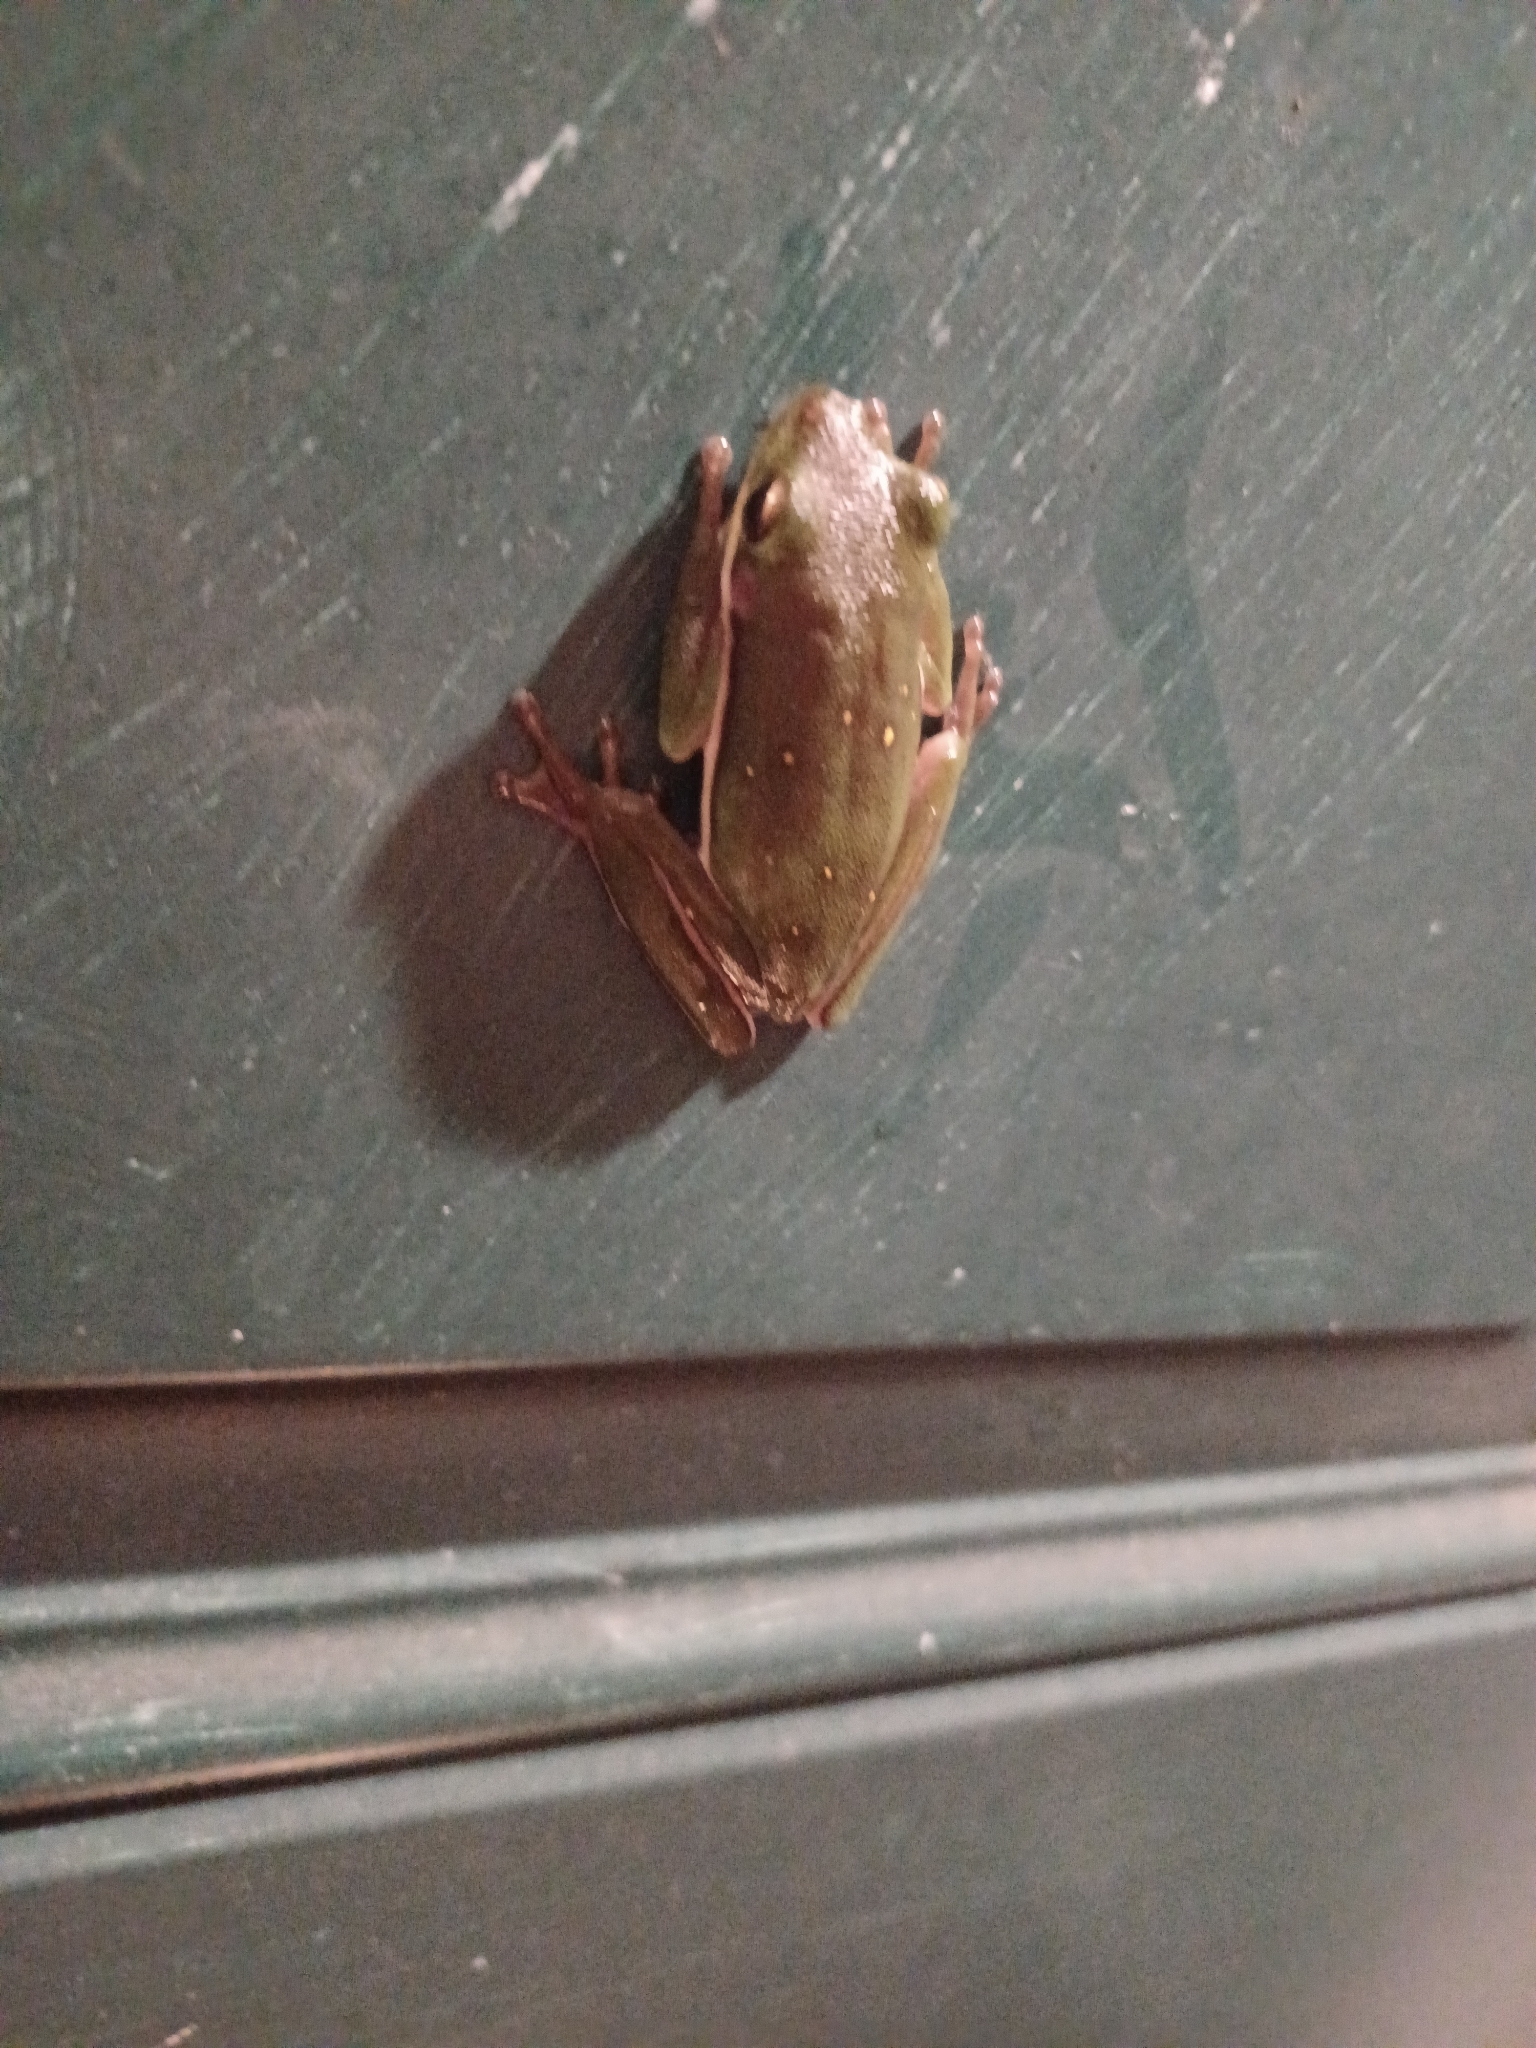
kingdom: Animalia
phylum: Chordata
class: Amphibia
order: Anura
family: Hylidae
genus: Dryophytes
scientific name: Dryophytes cinereus
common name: Green treefrog
